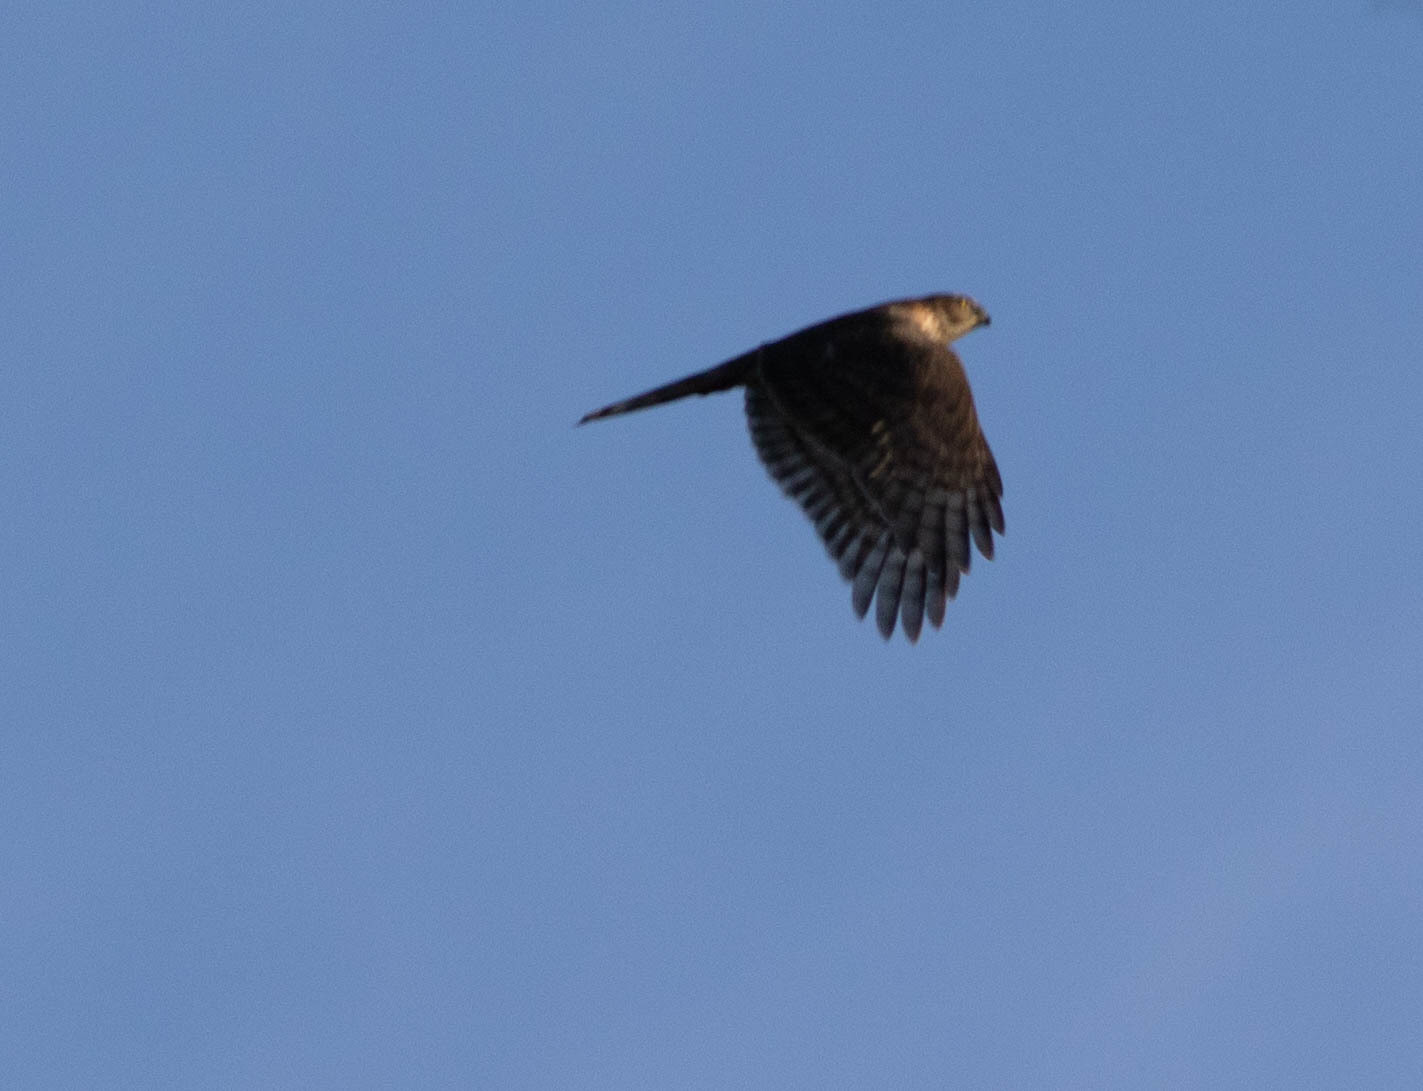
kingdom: Animalia
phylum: Chordata
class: Aves
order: Accipitriformes
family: Accipitridae
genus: Accipiter
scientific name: Accipiter striatus
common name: Sharp-shinned hawk
